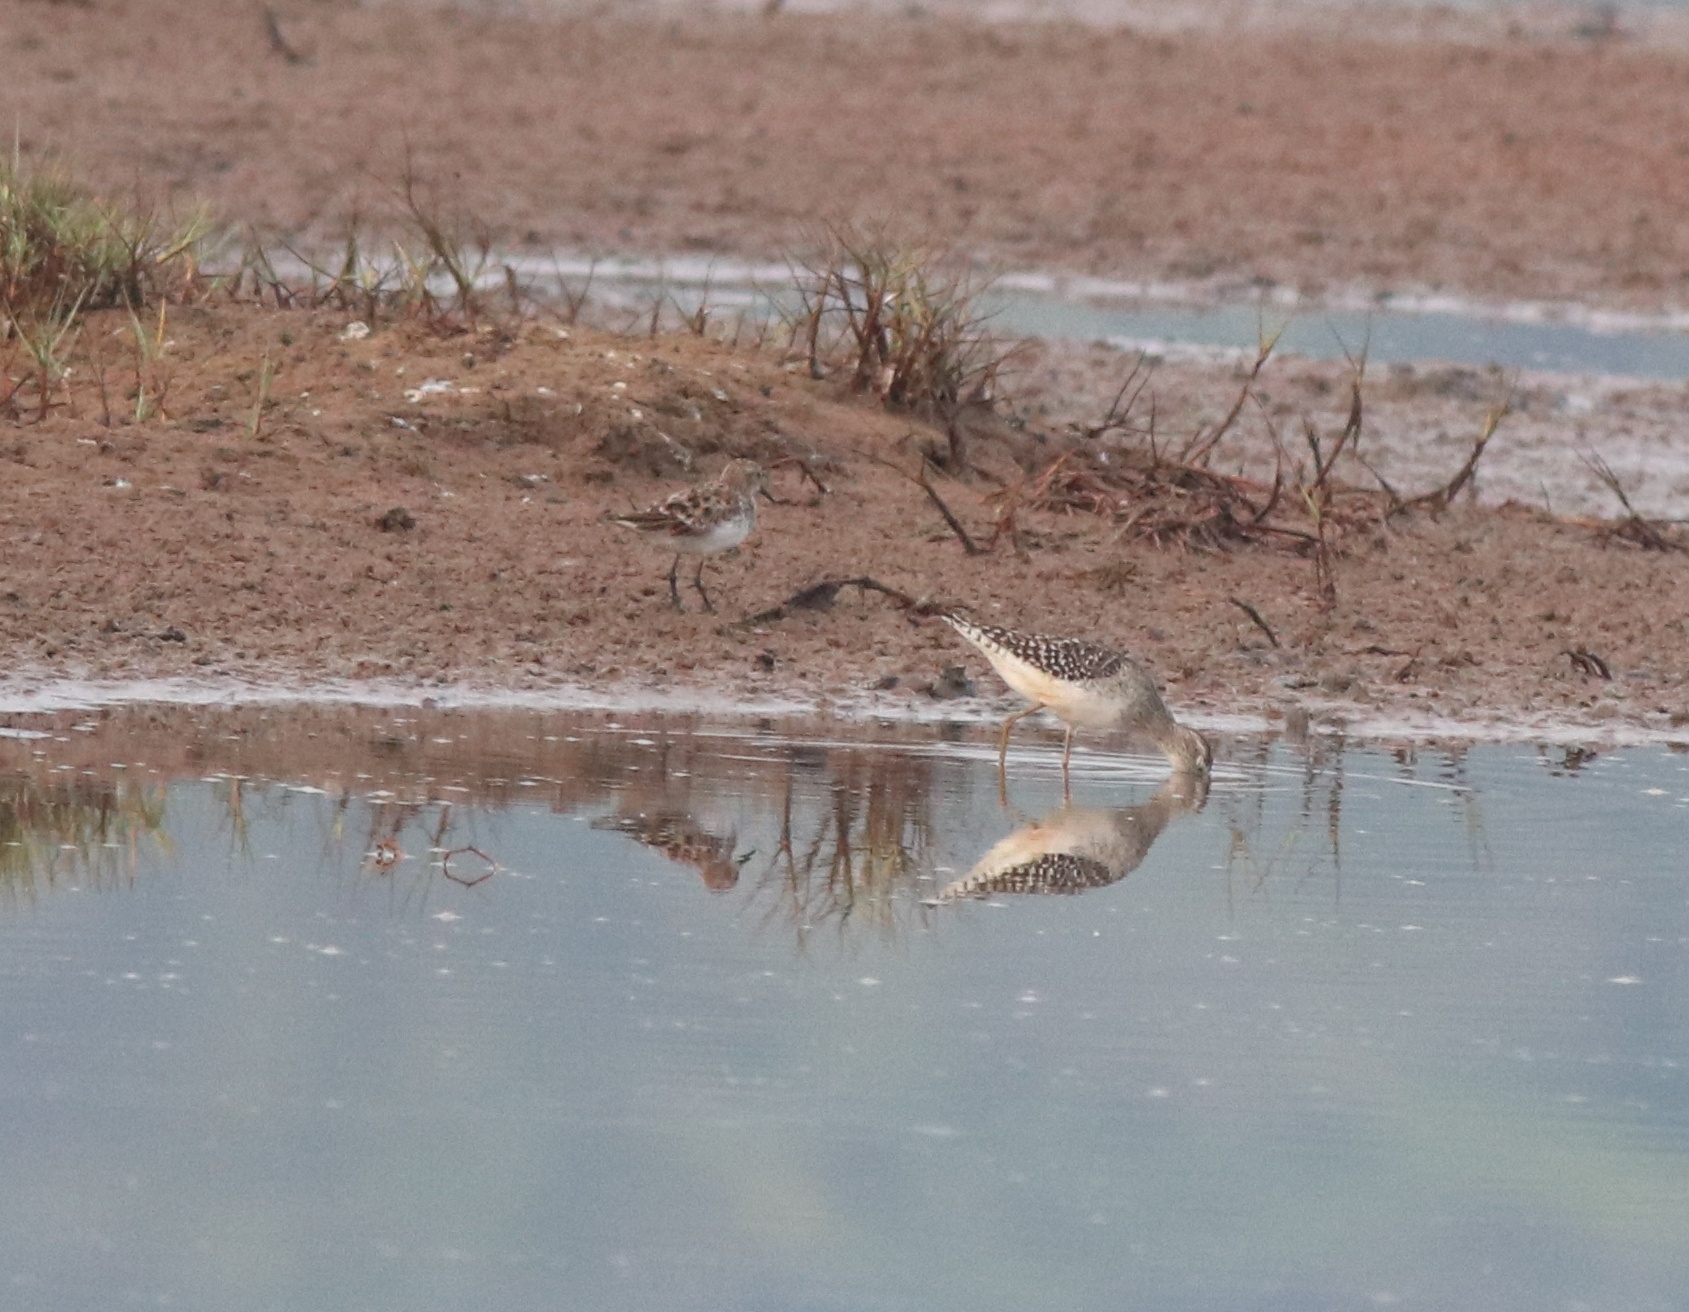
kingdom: Animalia
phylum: Chordata
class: Aves
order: Charadriiformes
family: Scolopacidae
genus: Calidris
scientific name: Calidris minuta
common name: Little stint
